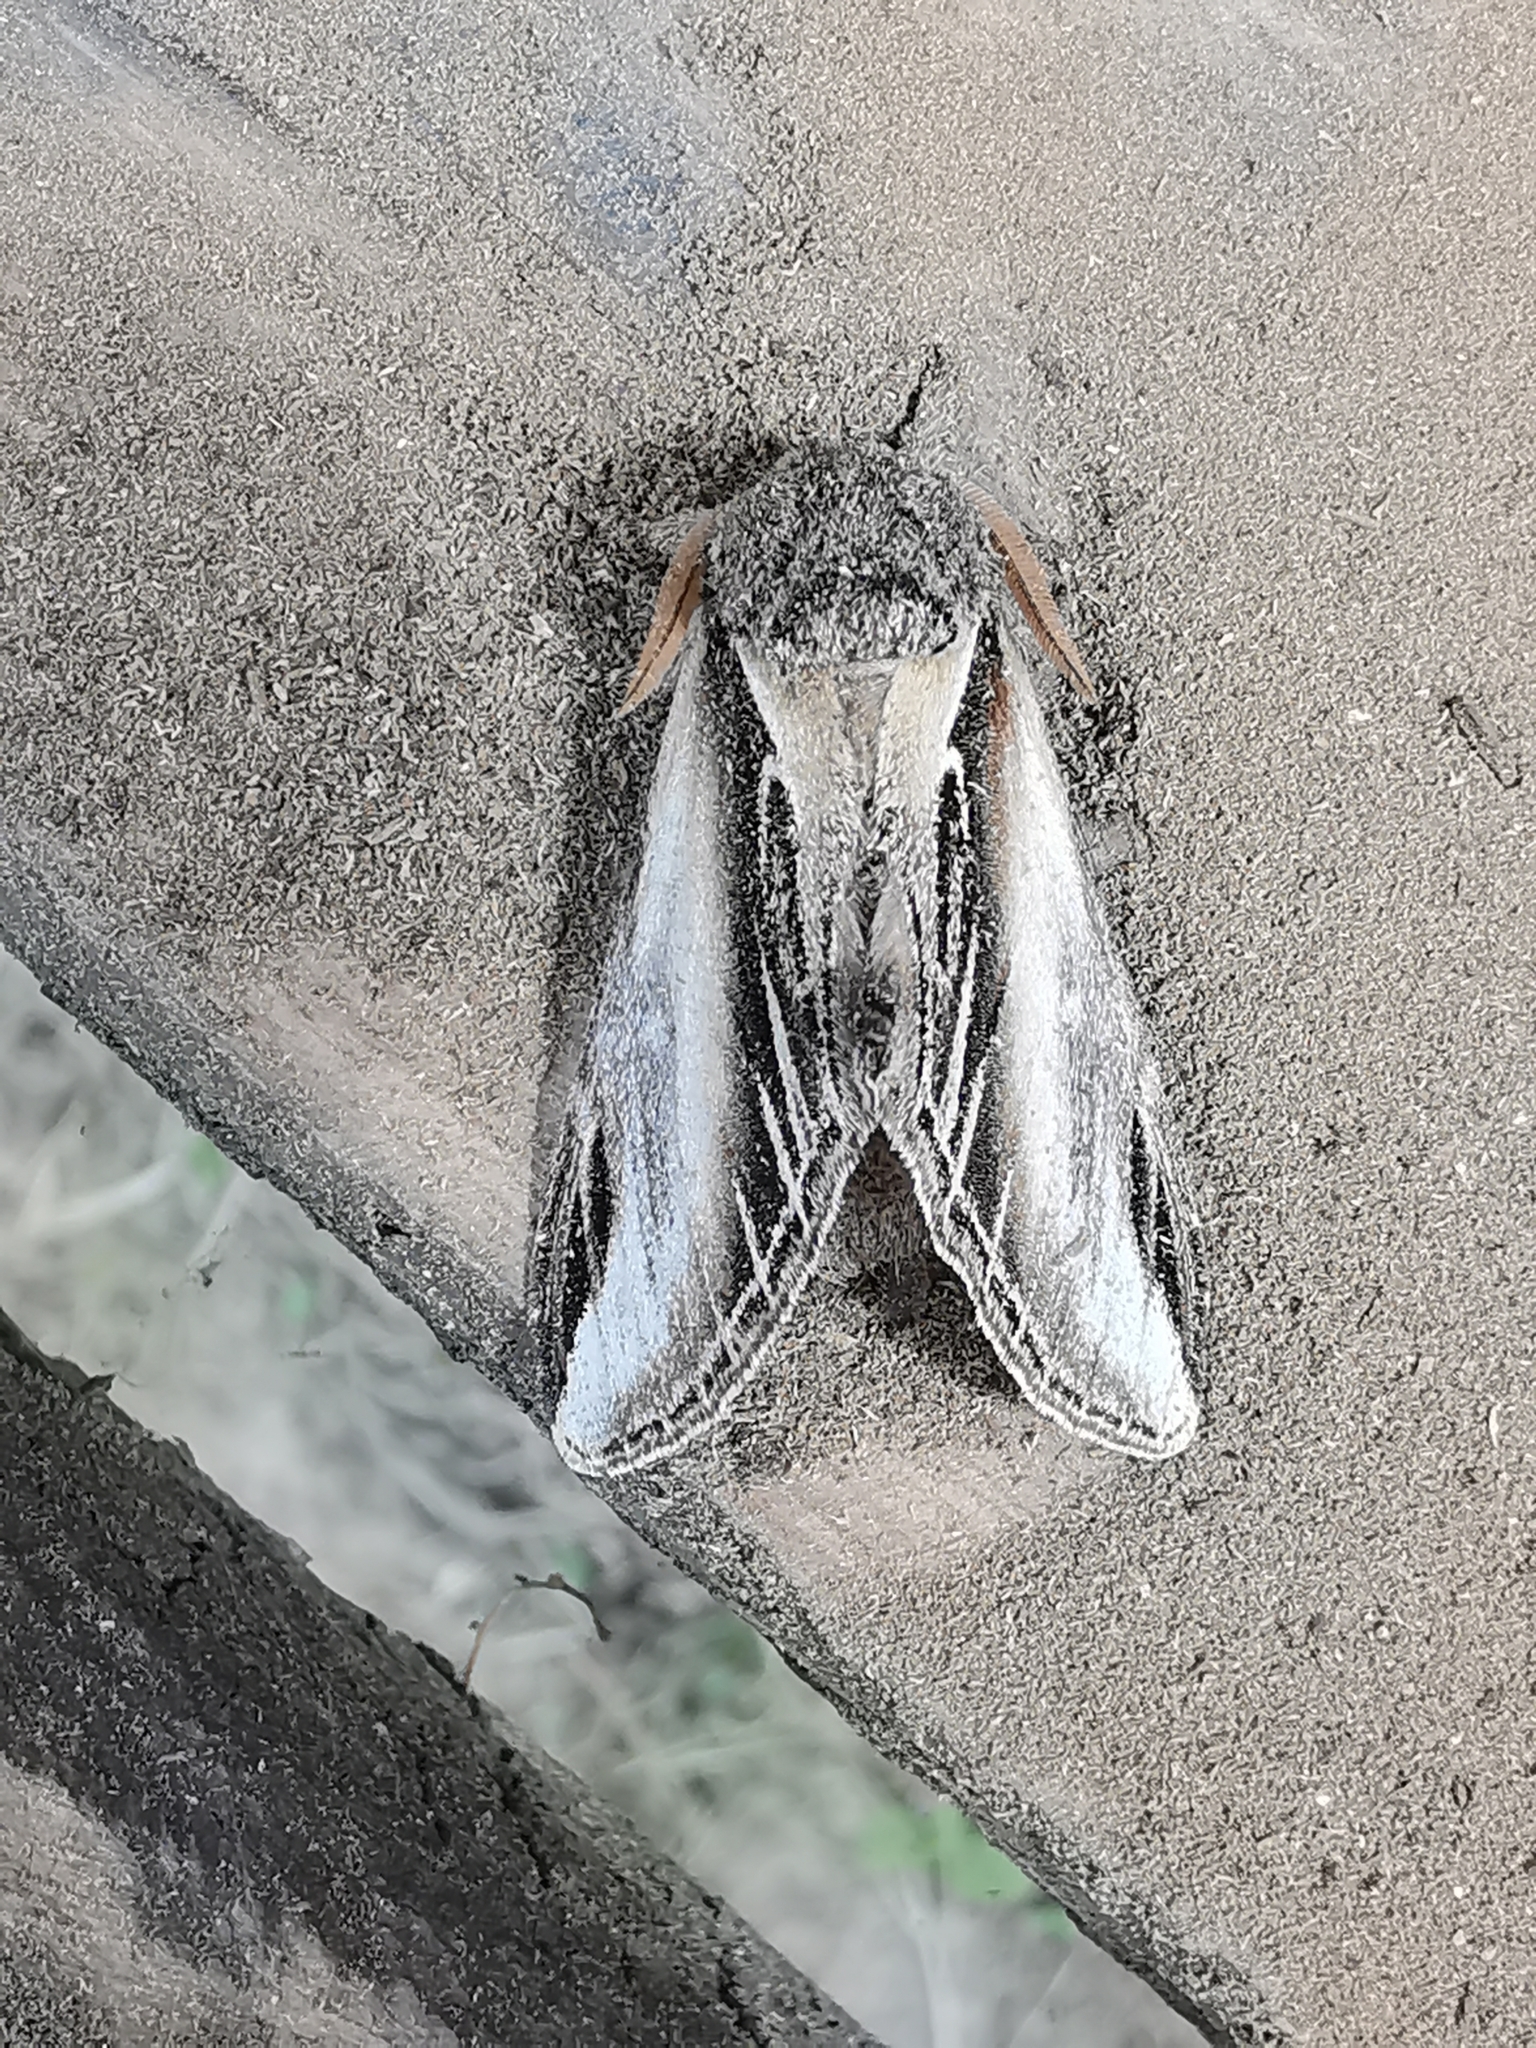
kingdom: Animalia
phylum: Arthropoda
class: Insecta
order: Lepidoptera
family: Notodontidae
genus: Pheosia
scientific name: Pheosia tremula
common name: Swallow prominent
